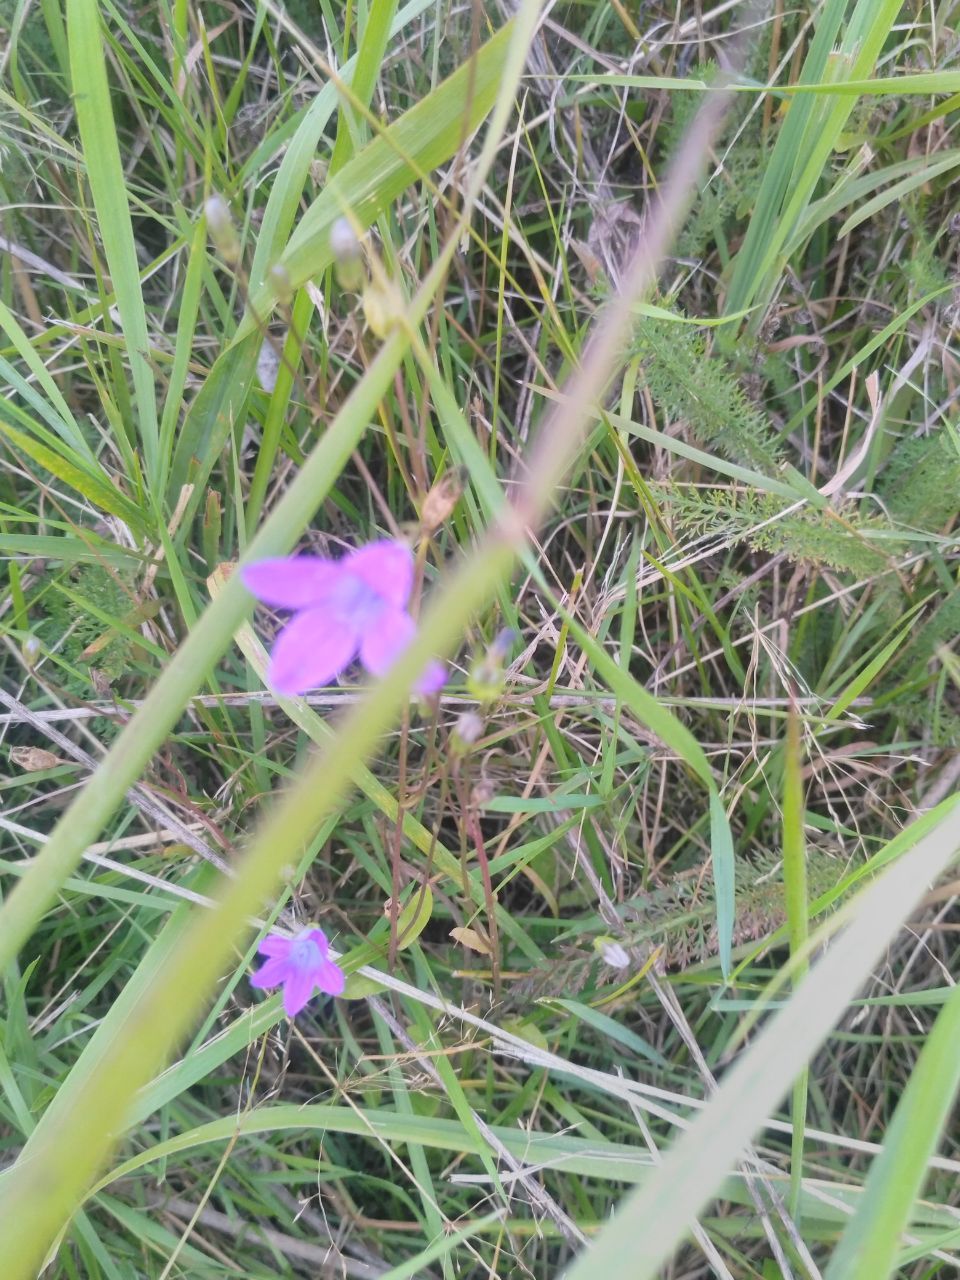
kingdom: Plantae
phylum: Tracheophyta
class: Magnoliopsida
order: Asterales
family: Campanulaceae
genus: Campanula
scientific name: Campanula patula
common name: Spreading bellflower
